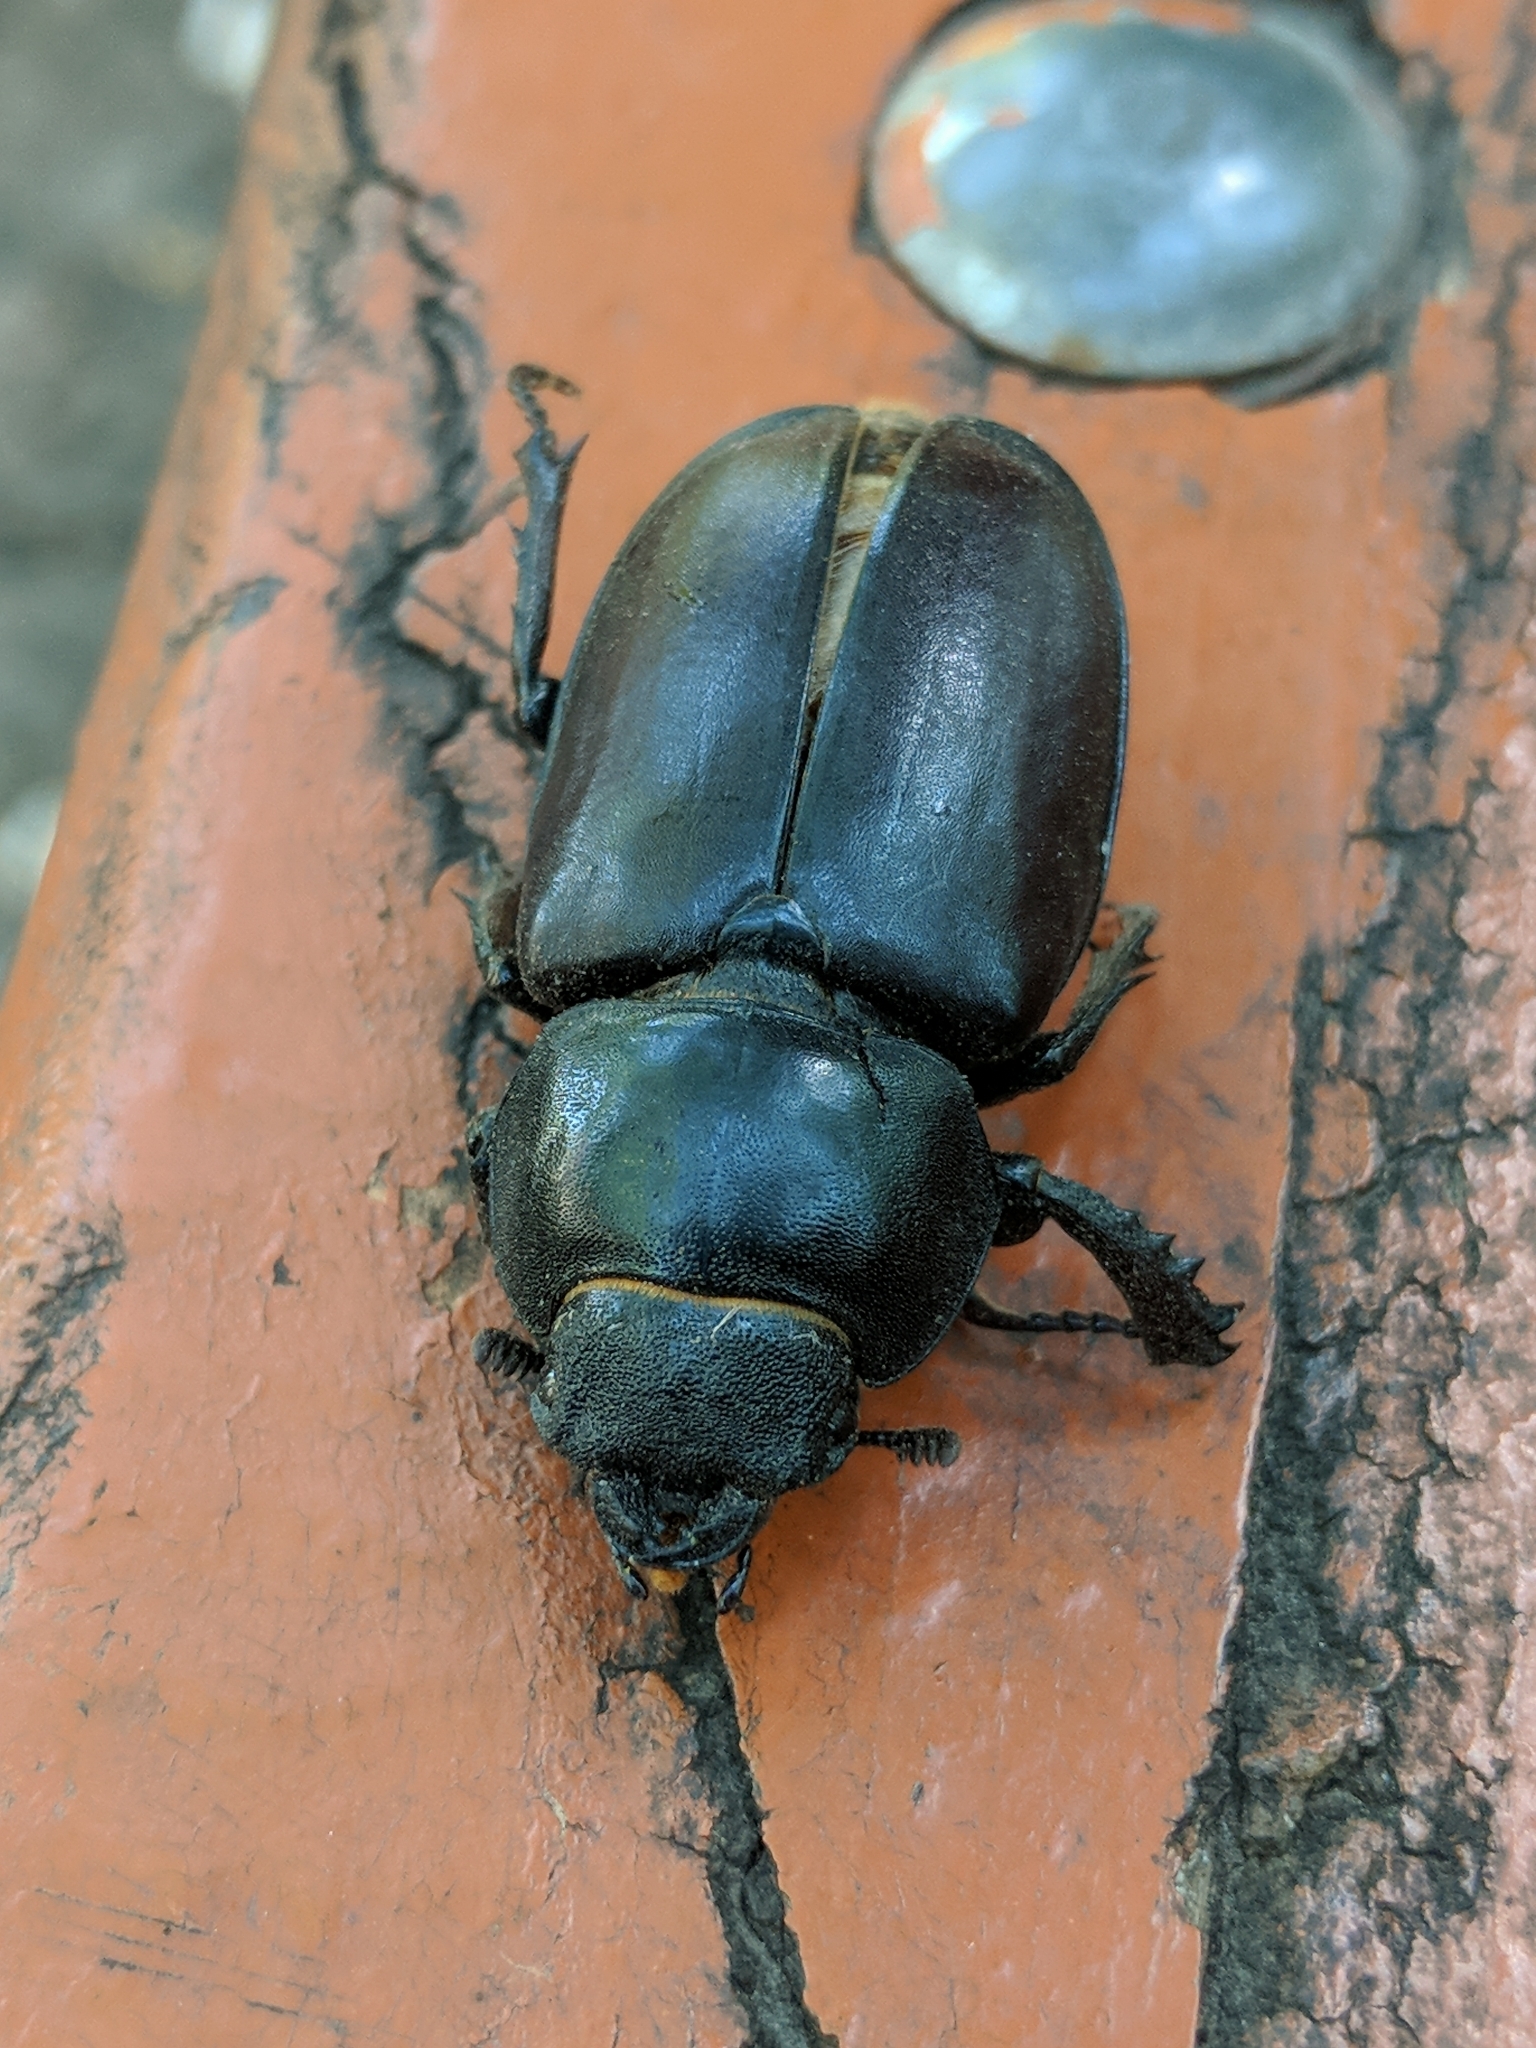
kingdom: Animalia
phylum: Arthropoda
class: Insecta
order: Coleoptera
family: Lucanidae
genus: Lucanus
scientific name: Lucanus cervus
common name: Stag beetle
